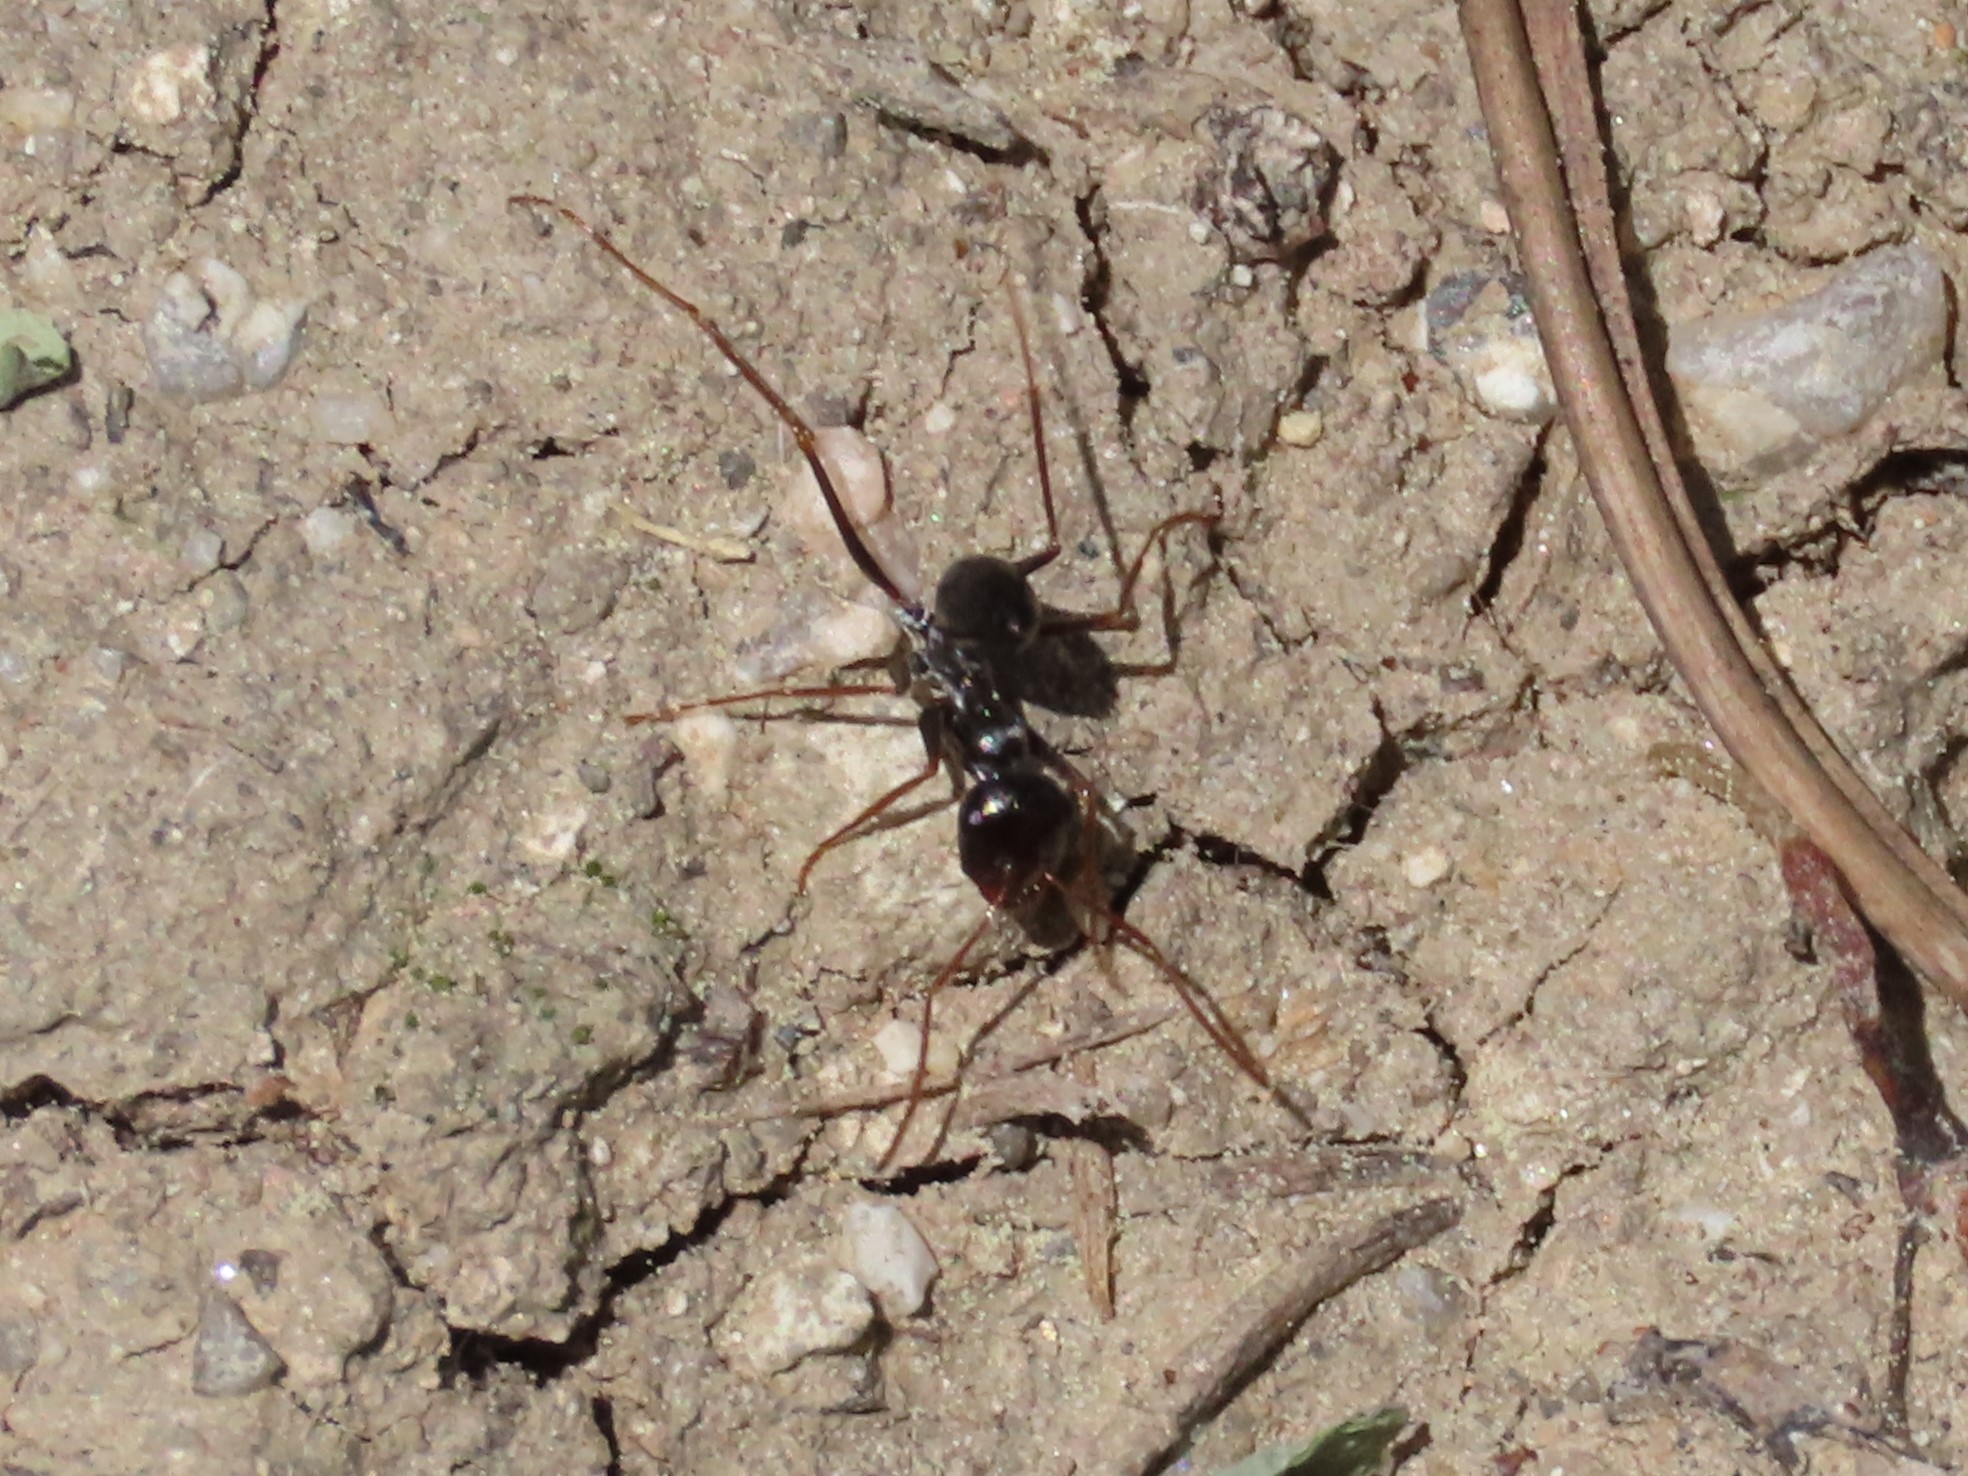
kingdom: Animalia
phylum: Arthropoda
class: Insecta
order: Hymenoptera
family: Formicidae
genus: Cataglyphis
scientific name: Cataglyphis ibericus
